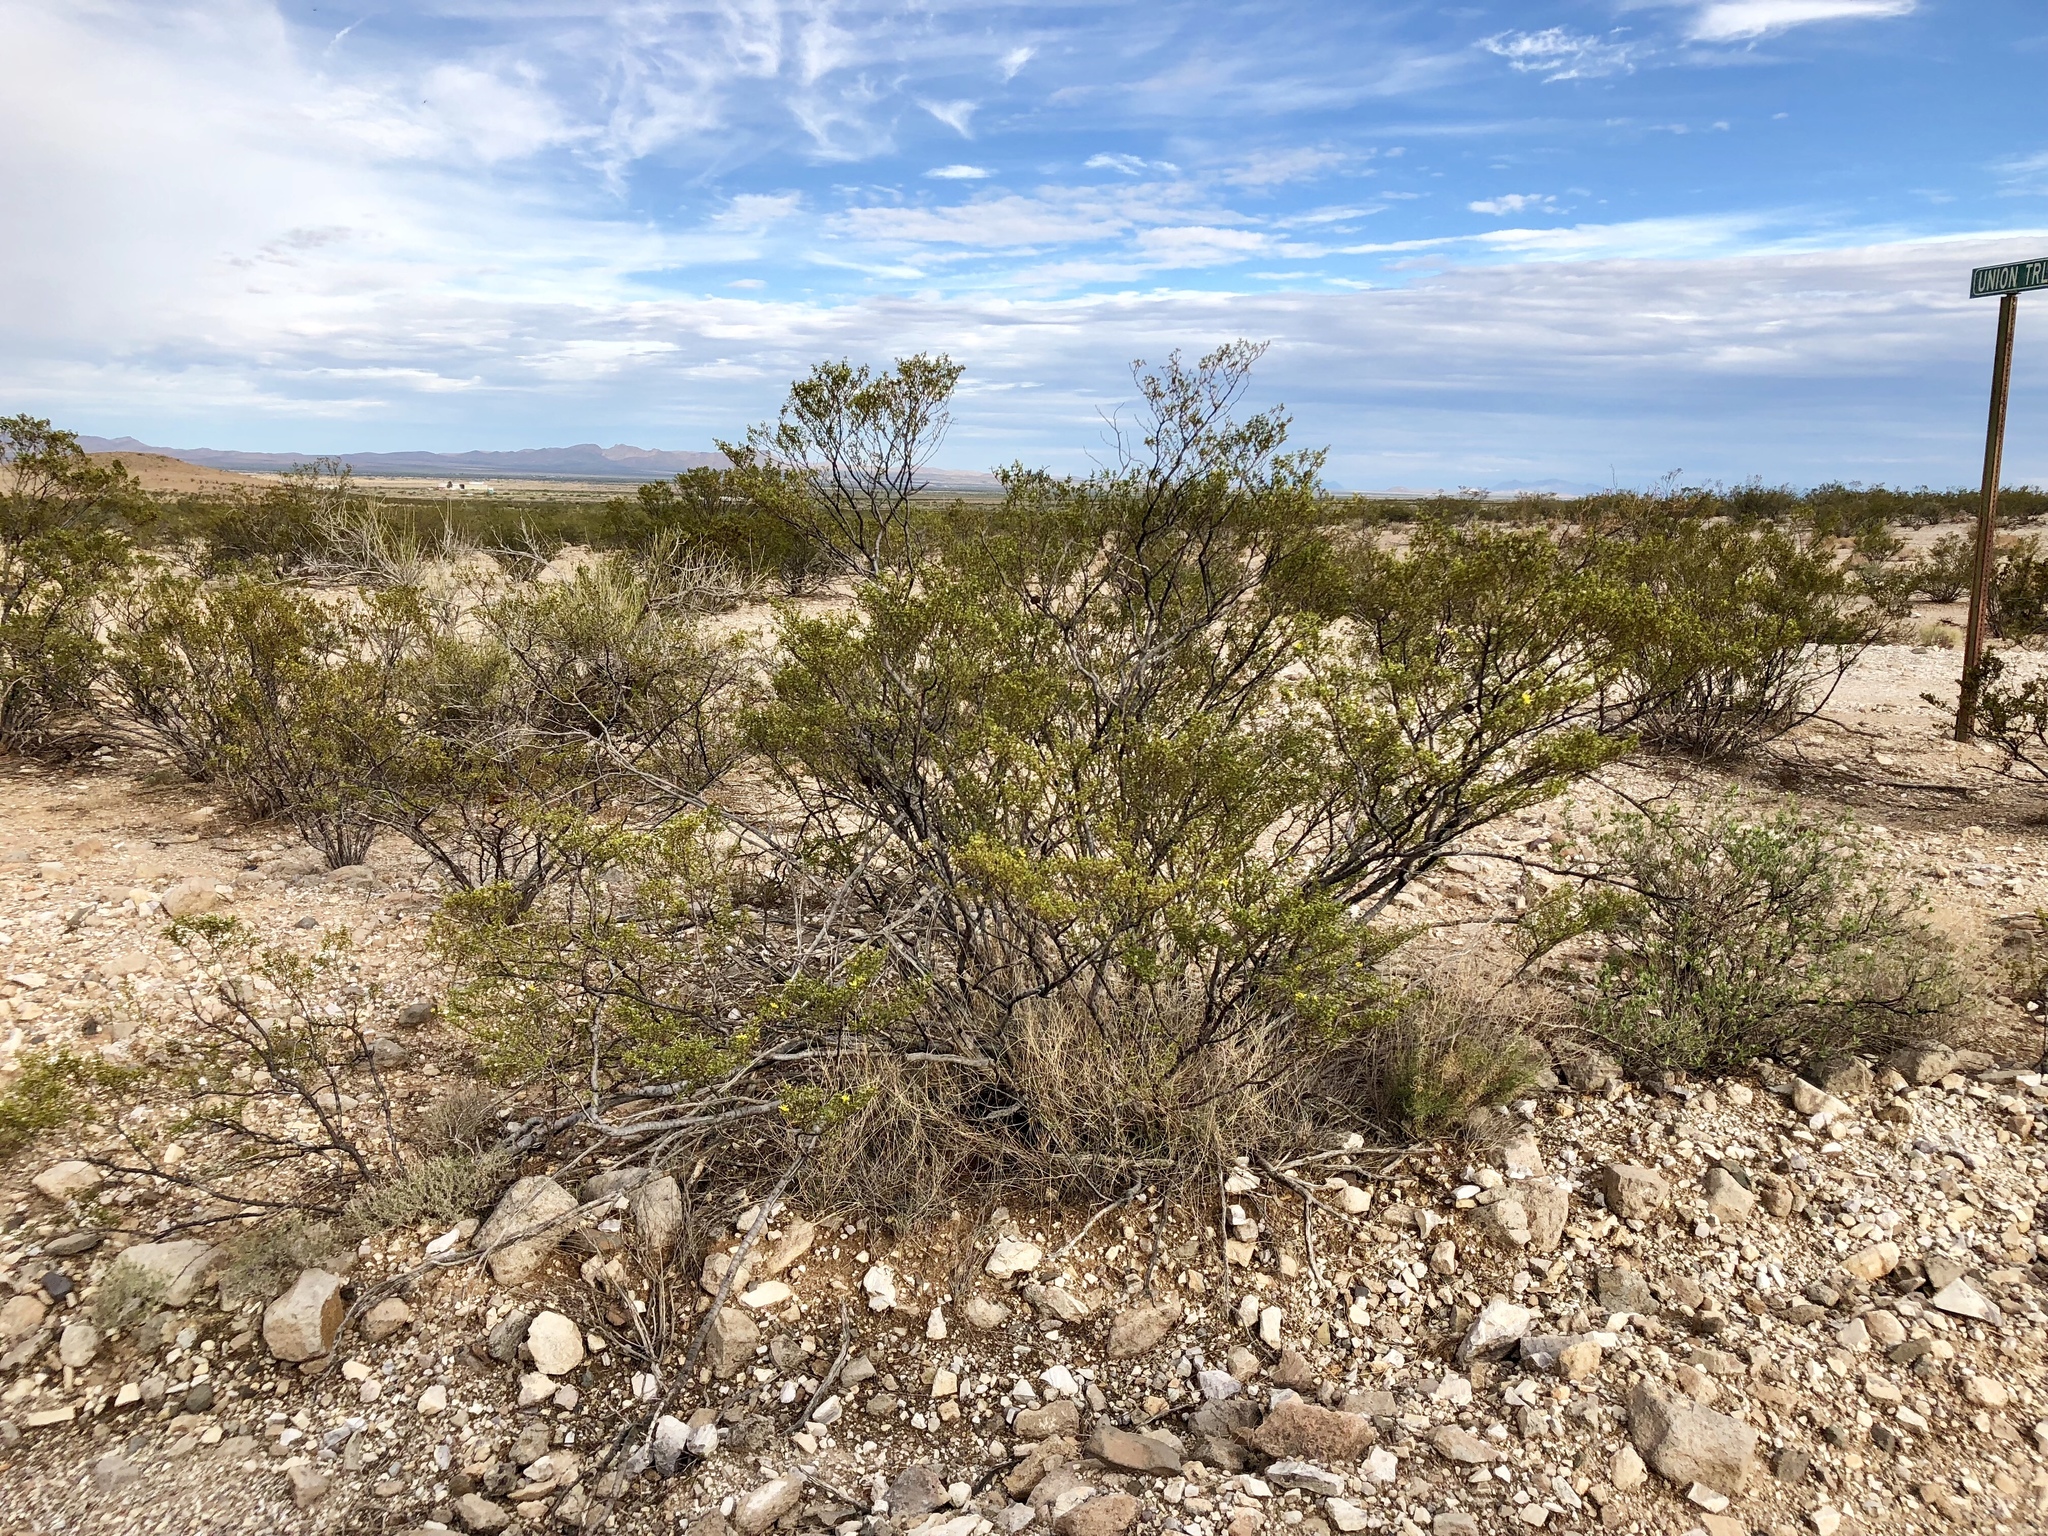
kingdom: Plantae
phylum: Tracheophyta
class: Magnoliopsida
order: Zygophyllales
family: Zygophyllaceae
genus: Larrea
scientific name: Larrea tridentata
